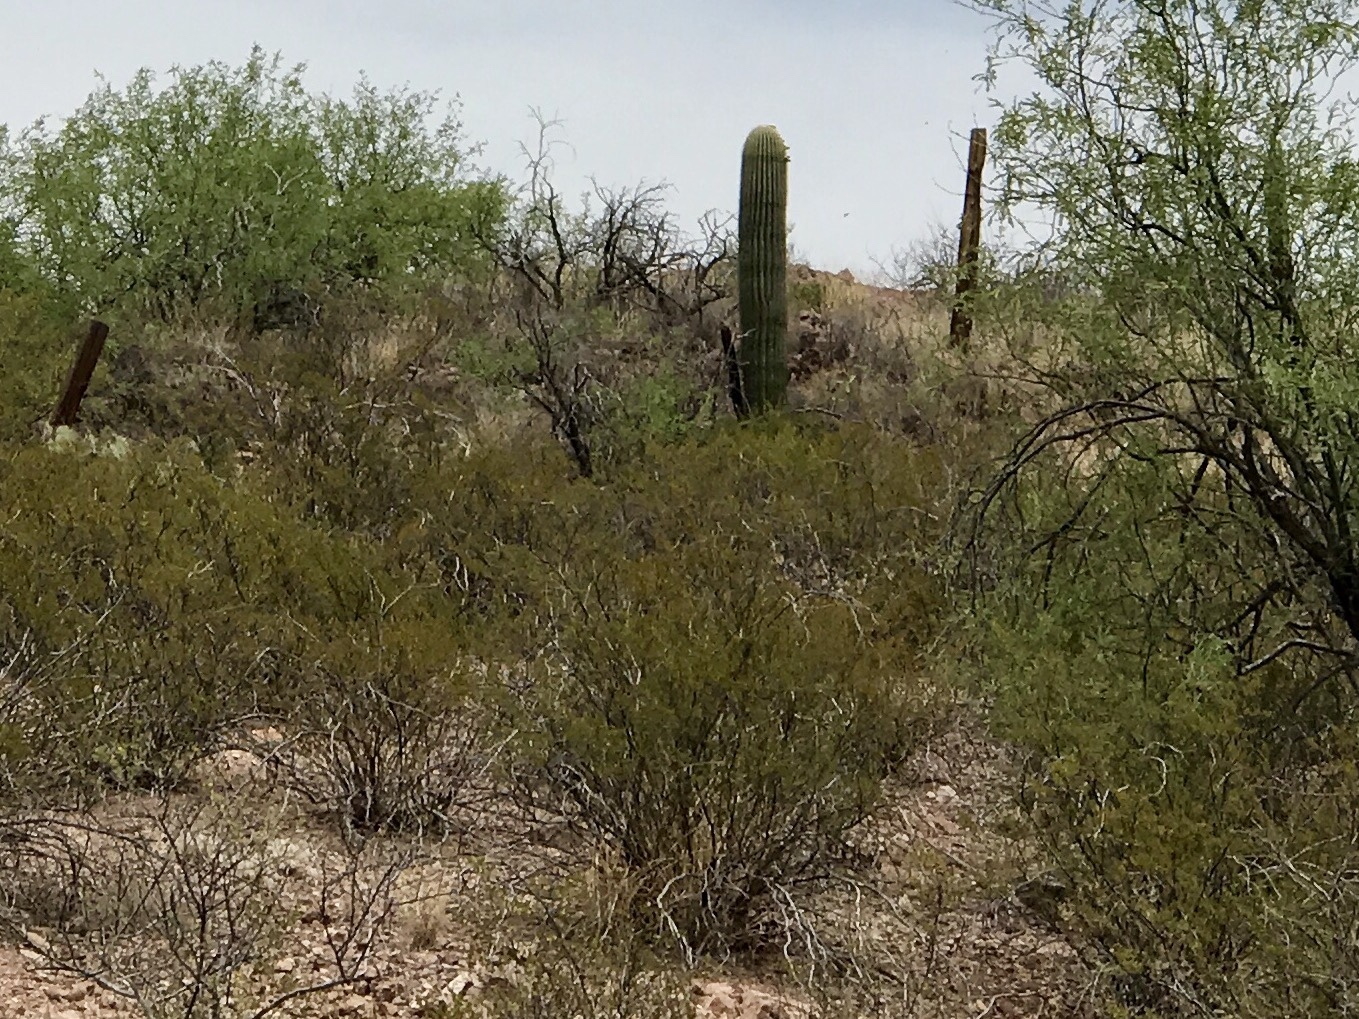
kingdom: Plantae
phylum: Tracheophyta
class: Magnoliopsida
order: Zygophyllales
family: Zygophyllaceae
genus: Larrea
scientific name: Larrea tridentata
